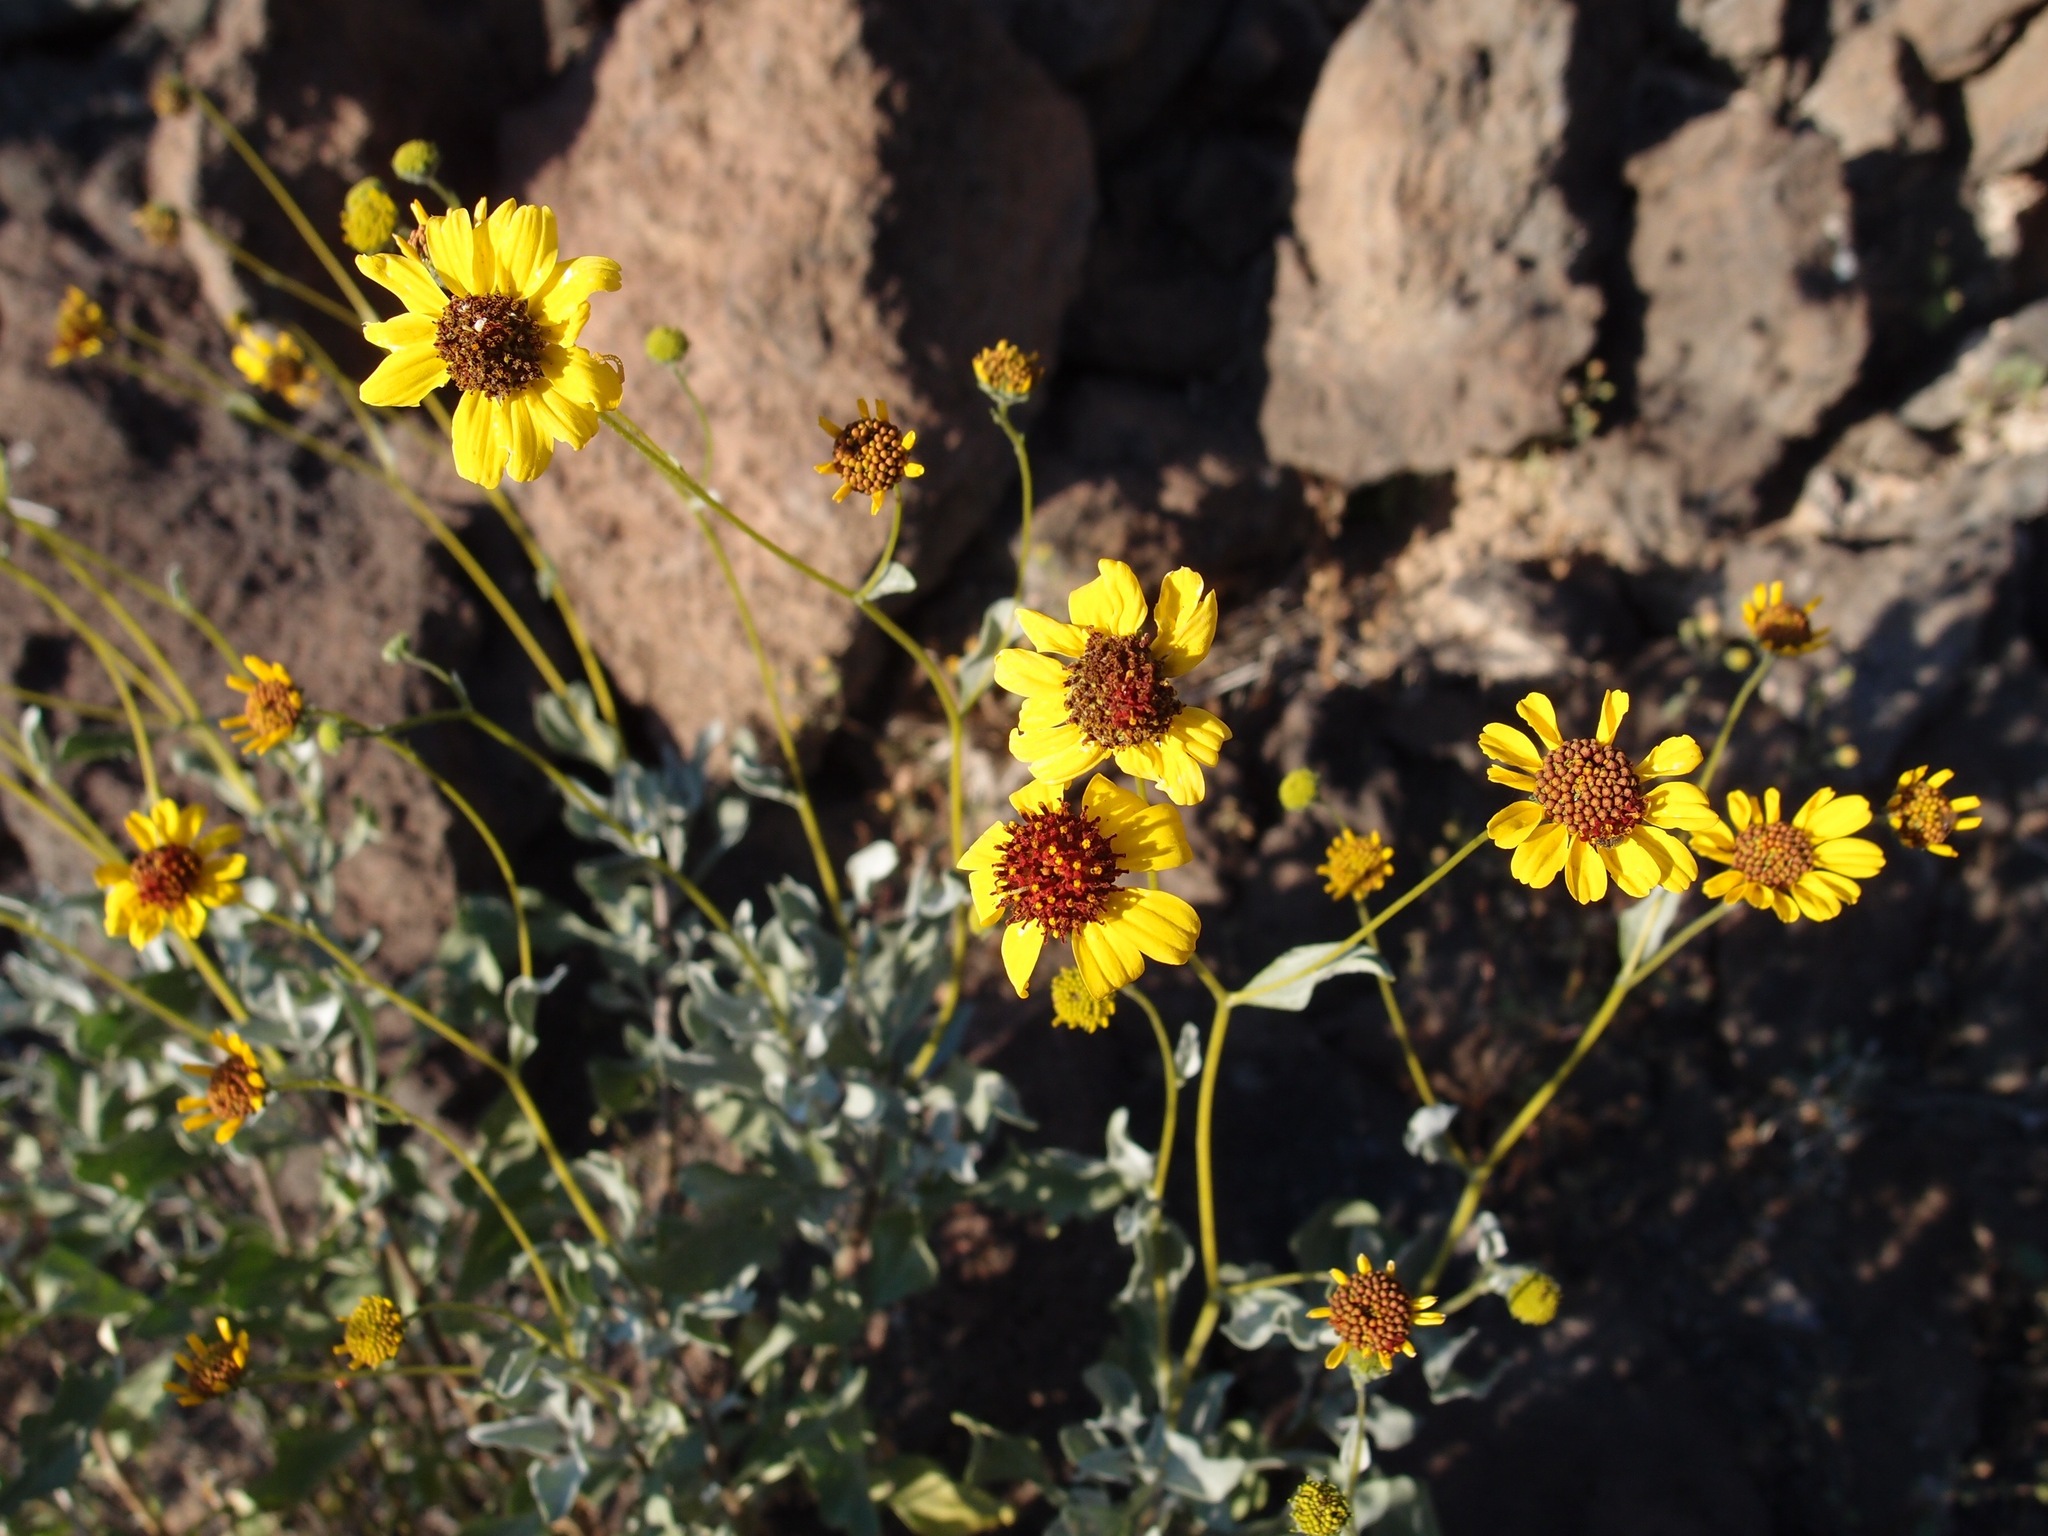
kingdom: Plantae
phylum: Tracheophyta
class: Magnoliopsida
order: Asterales
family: Asteraceae
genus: Encelia
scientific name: Encelia farinosa
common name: Brittlebush
